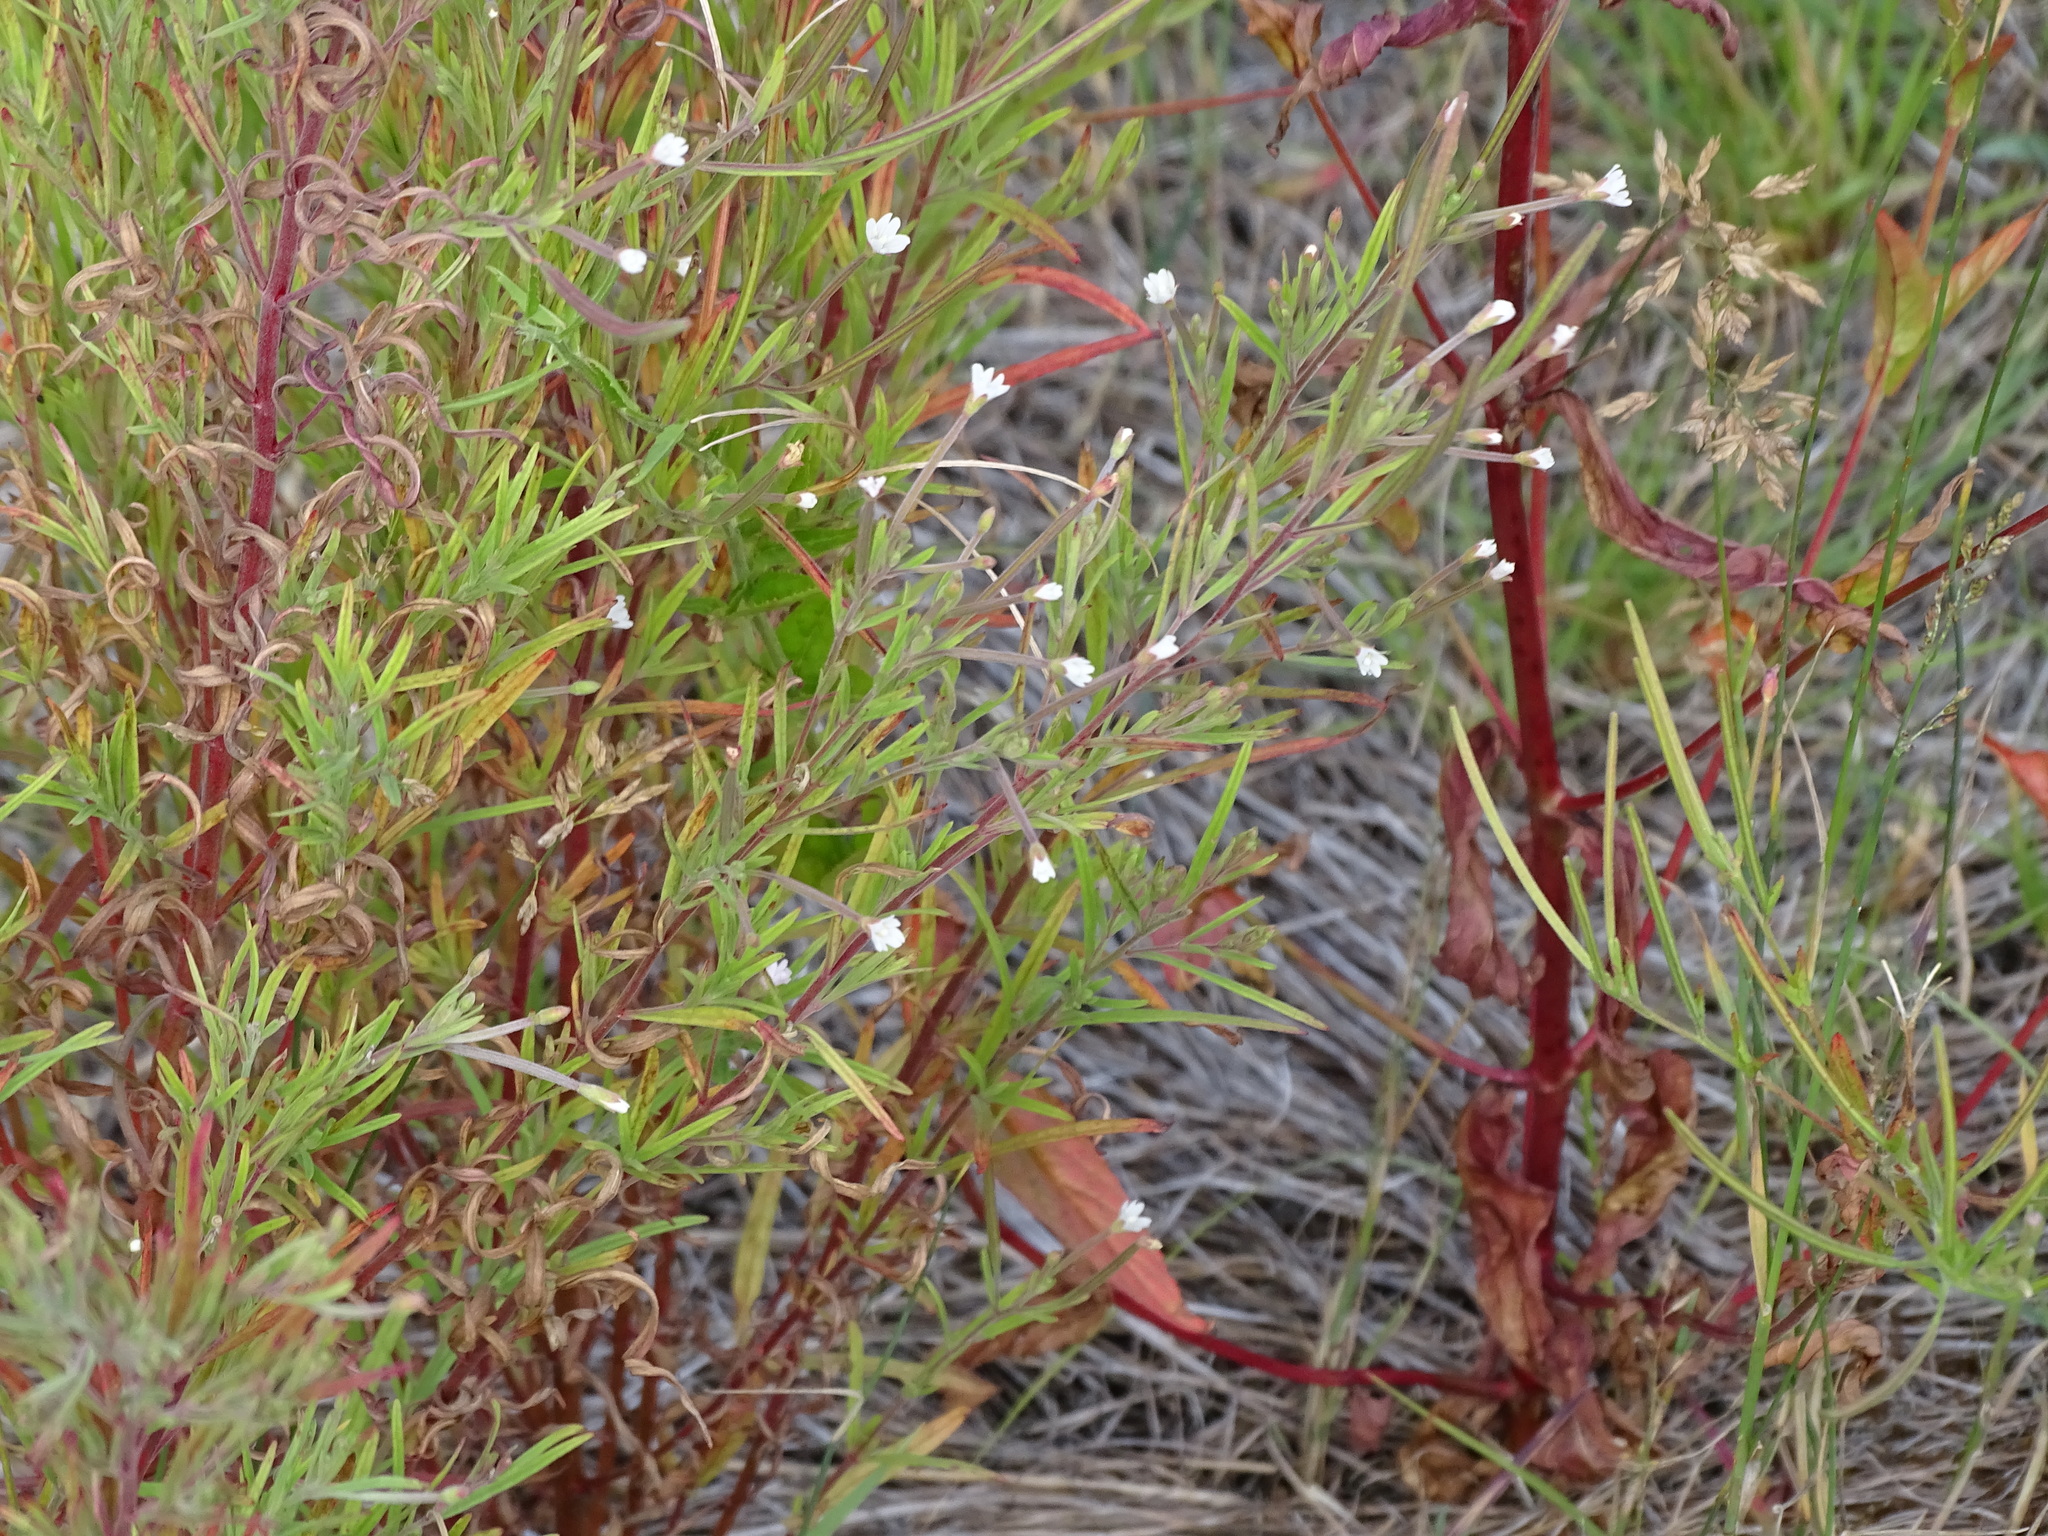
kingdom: Plantae
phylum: Tracheophyta
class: Magnoliopsida
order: Myrtales
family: Onagraceae
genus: Epilobium
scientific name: Epilobium leptophyllum
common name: Bog willowherb
